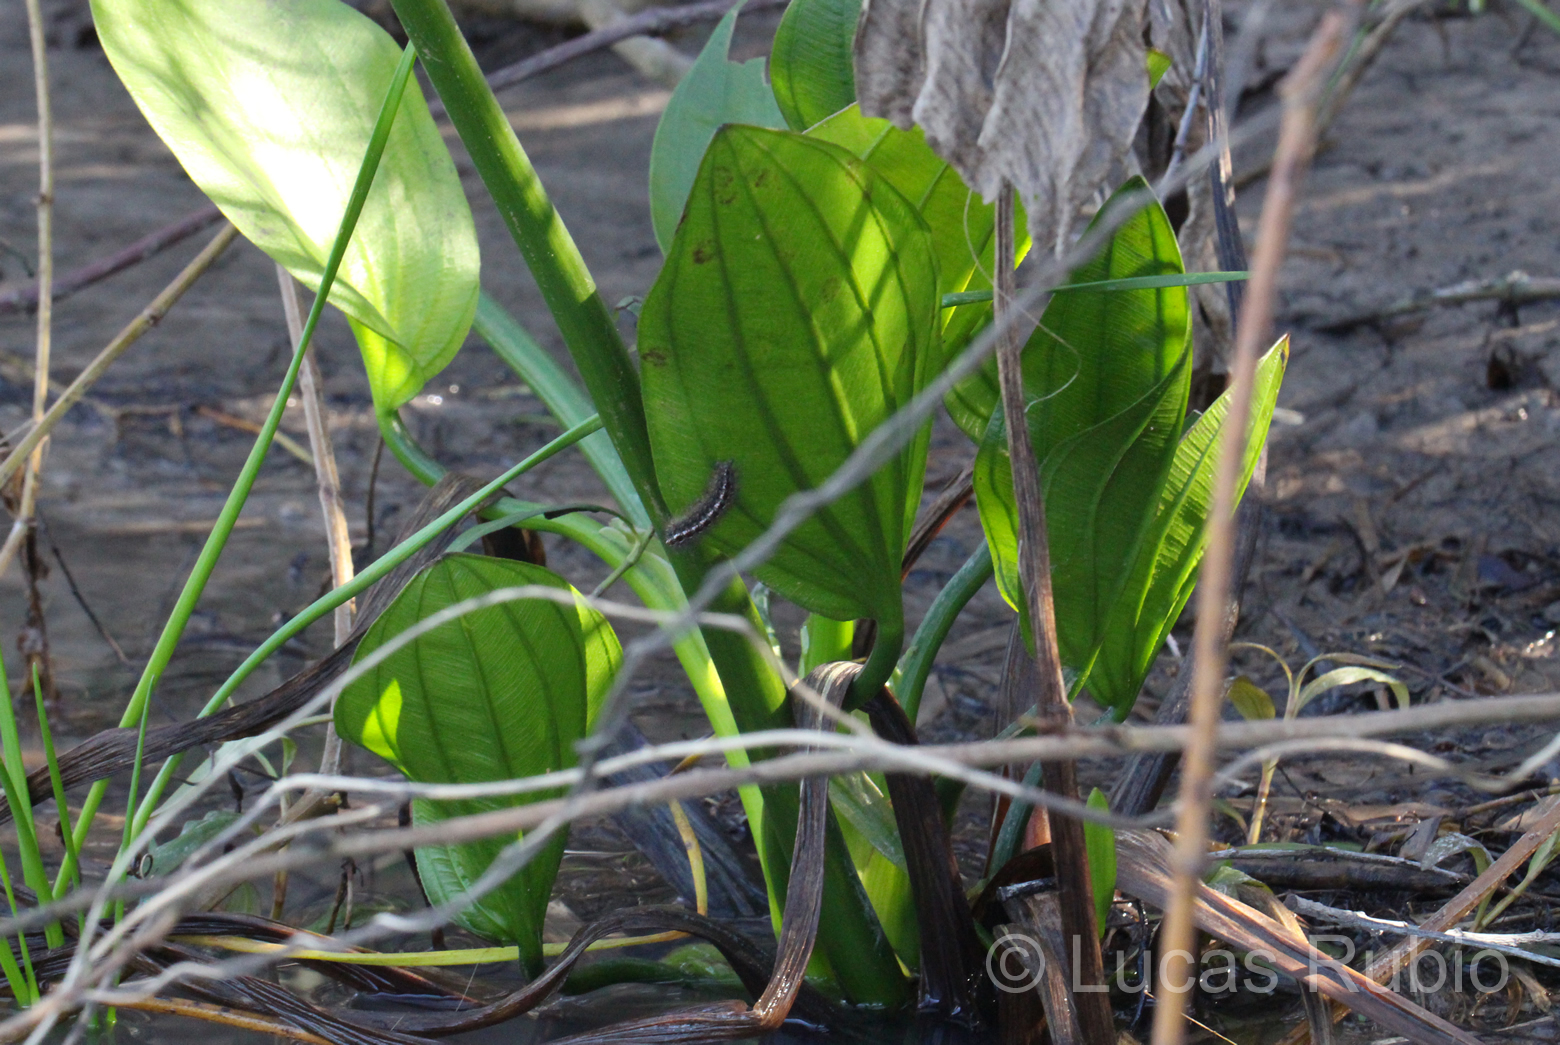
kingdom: Plantae
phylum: Tracheophyta
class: Liliopsida
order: Alismatales
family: Alismataceae
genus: Aquarius
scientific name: Aquarius grandiflorus
